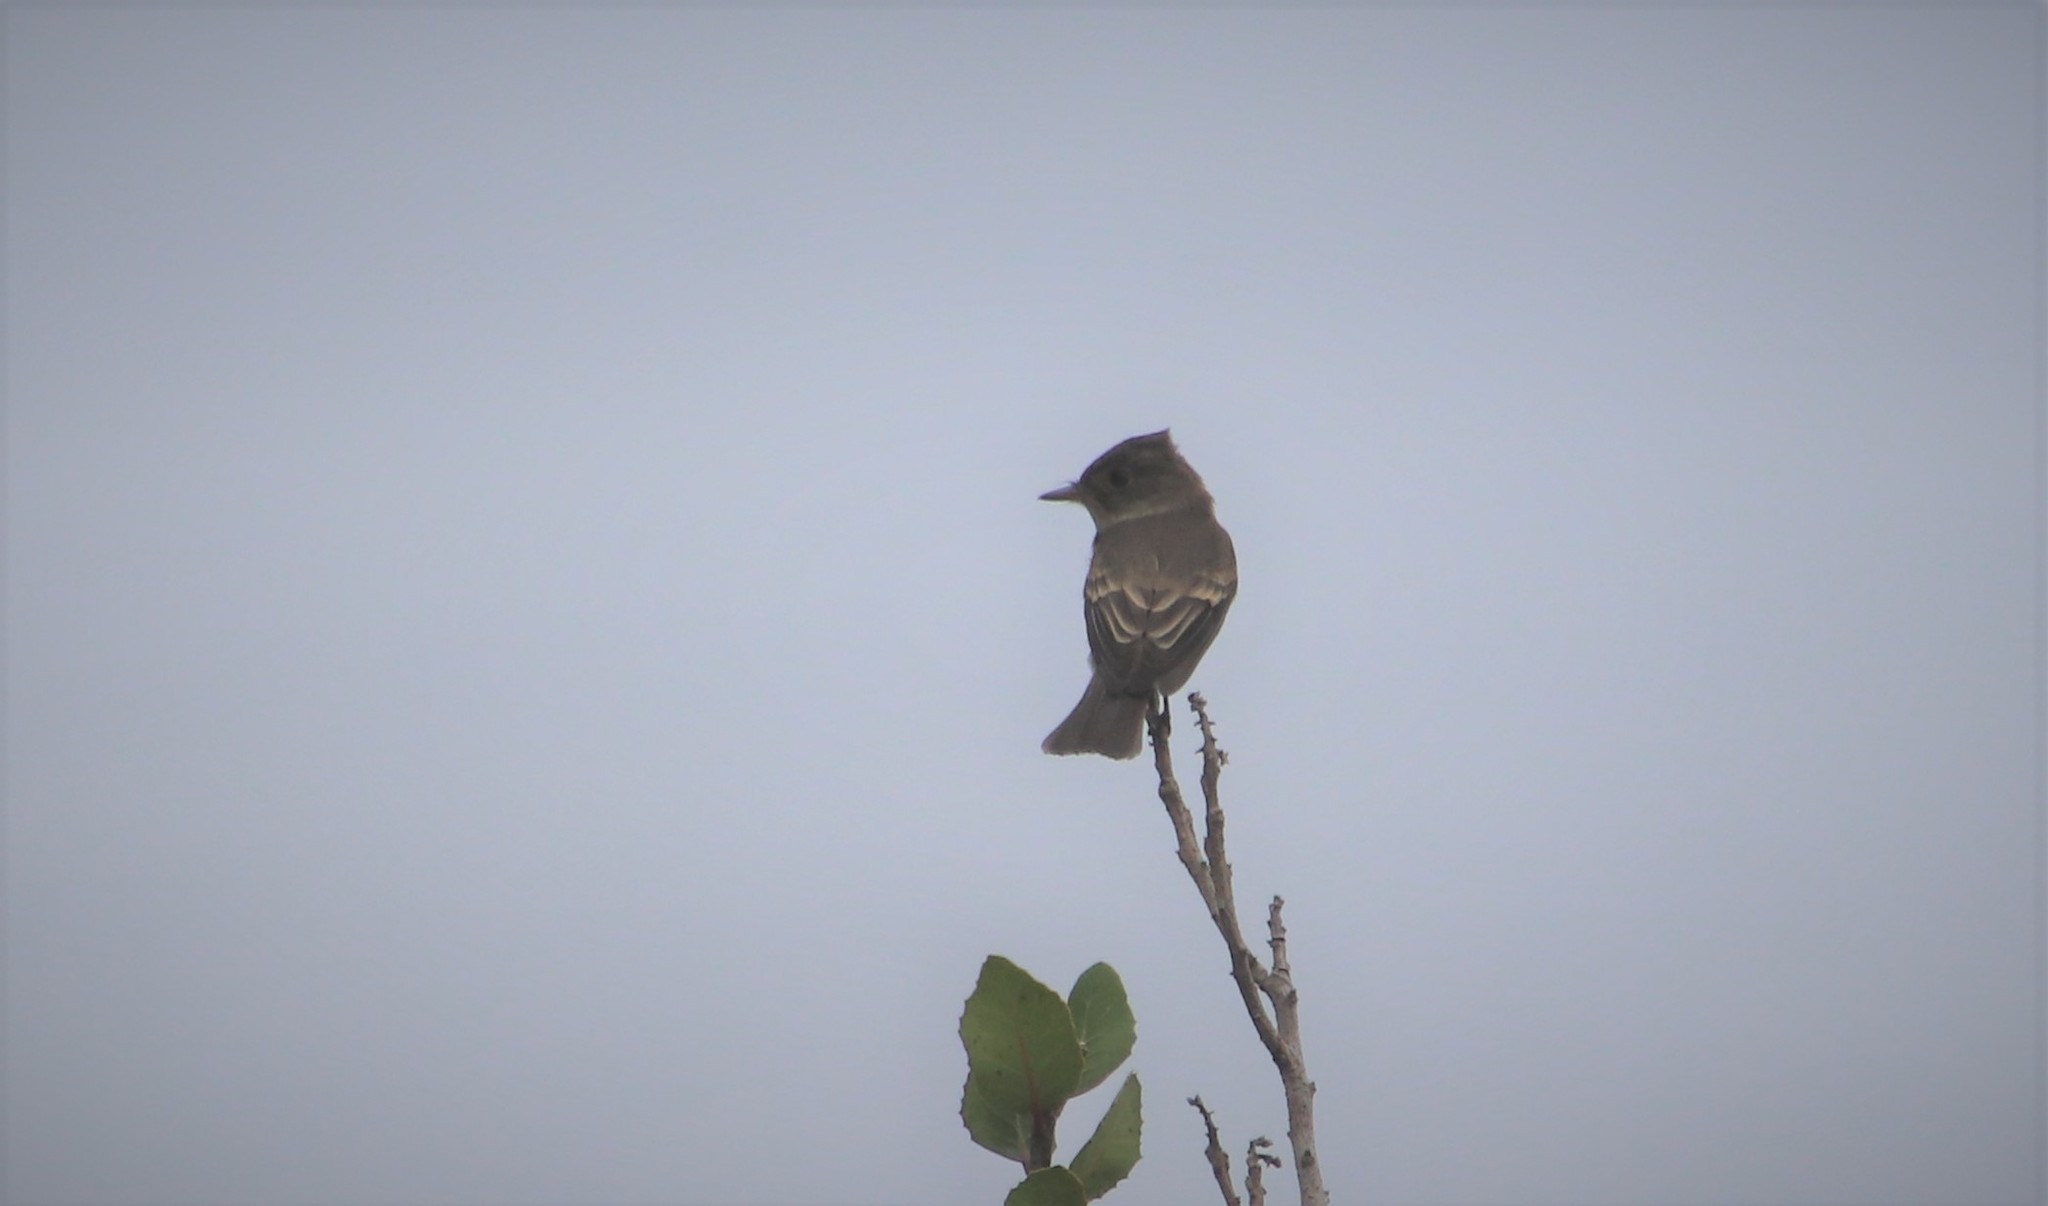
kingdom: Animalia
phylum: Chordata
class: Aves
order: Passeriformes
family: Tyrannidae
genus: Contopus
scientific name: Contopus sordidulus
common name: Western wood-pewee
